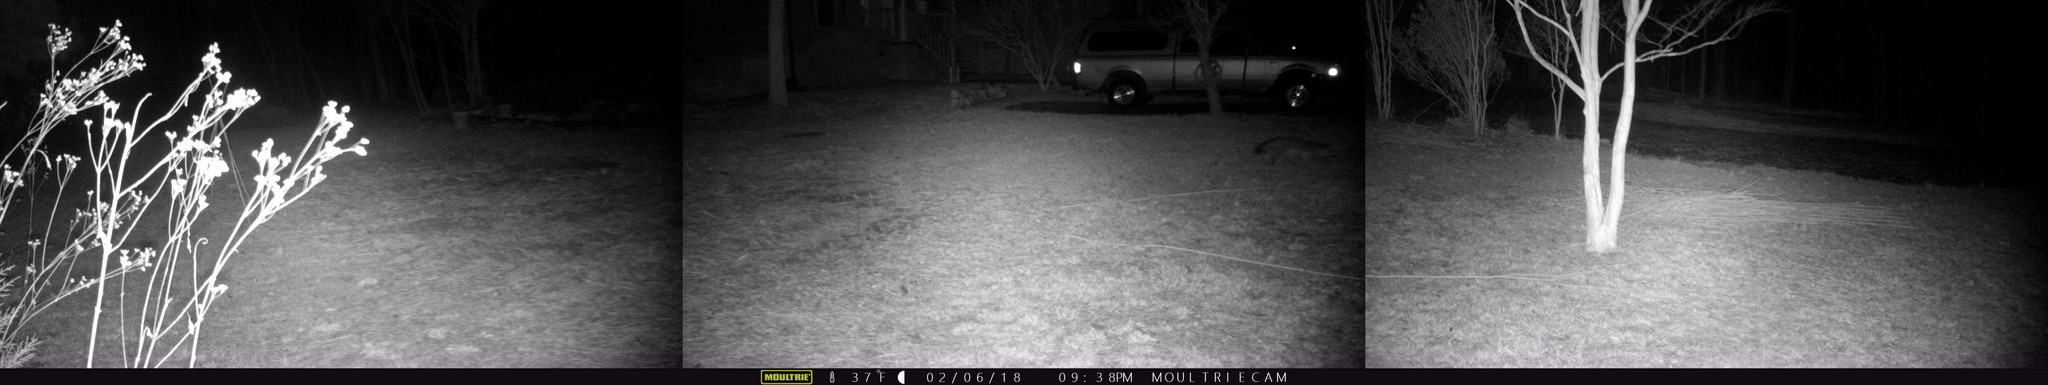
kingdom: Animalia
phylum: Chordata
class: Mammalia
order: Carnivora
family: Canidae
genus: Urocyon
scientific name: Urocyon cinereoargenteus
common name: Gray fox
